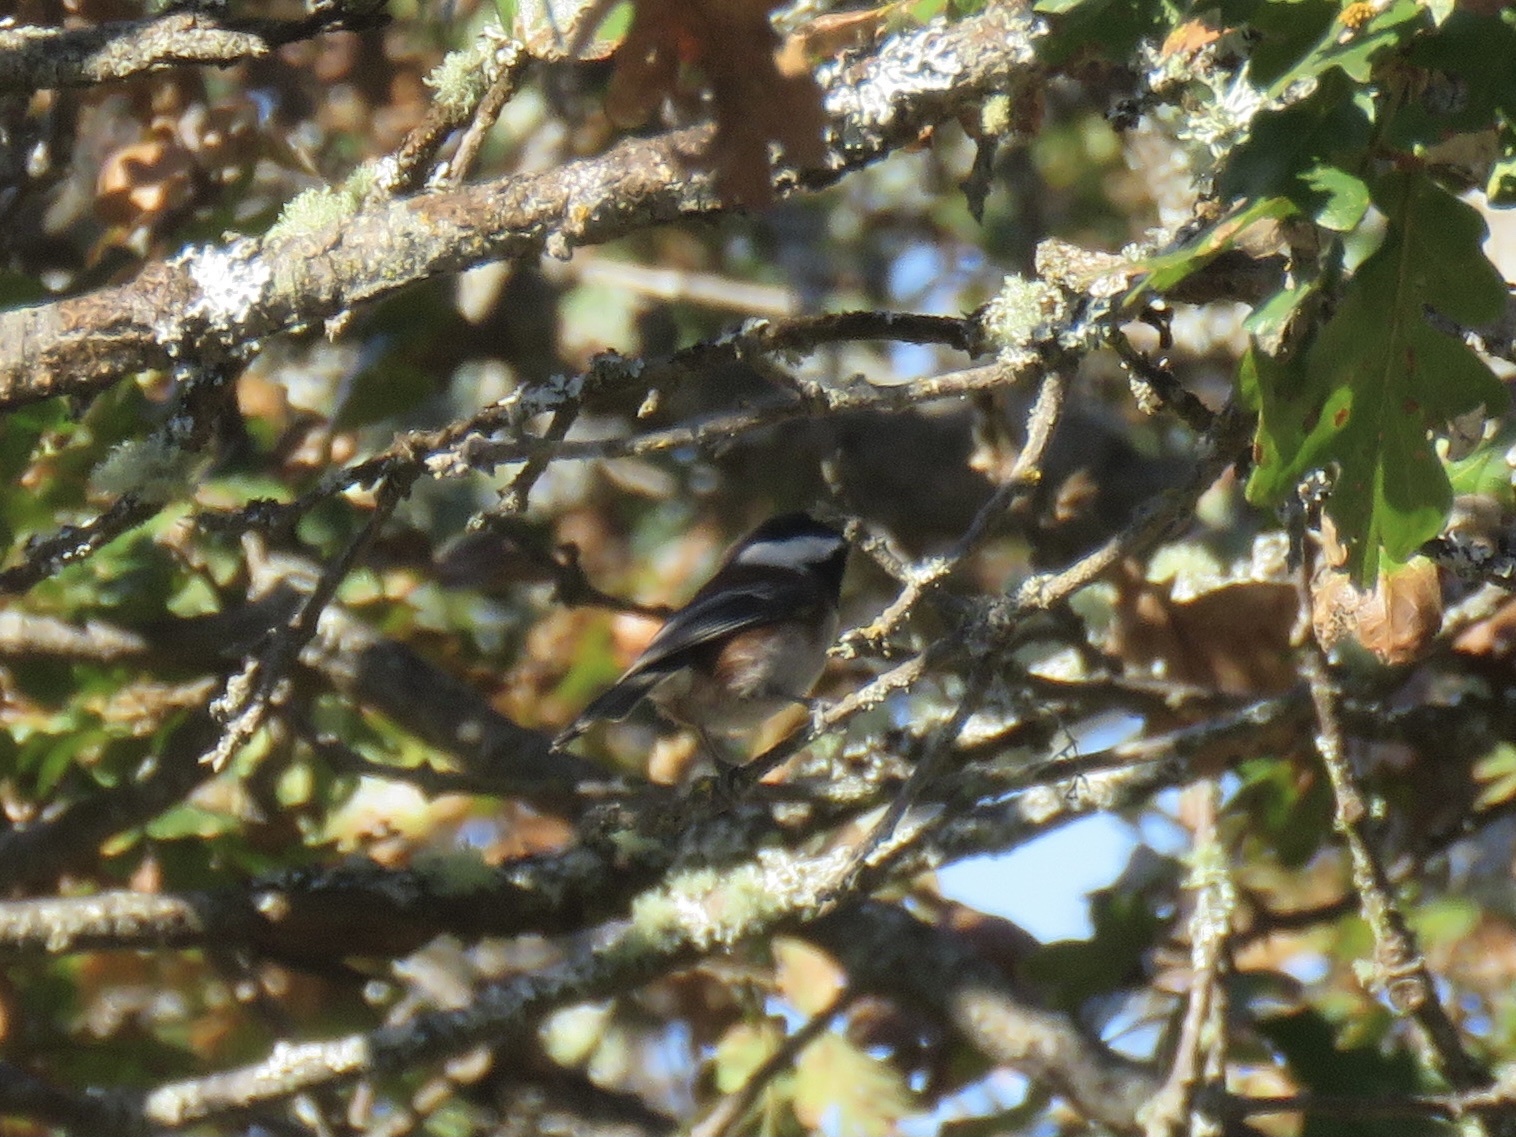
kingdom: Animalia
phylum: Chordata
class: Aves
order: Passeriformes
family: Paridae
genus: Poecile
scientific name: Poecile rufescens
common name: Chestnut-backed chickadee
